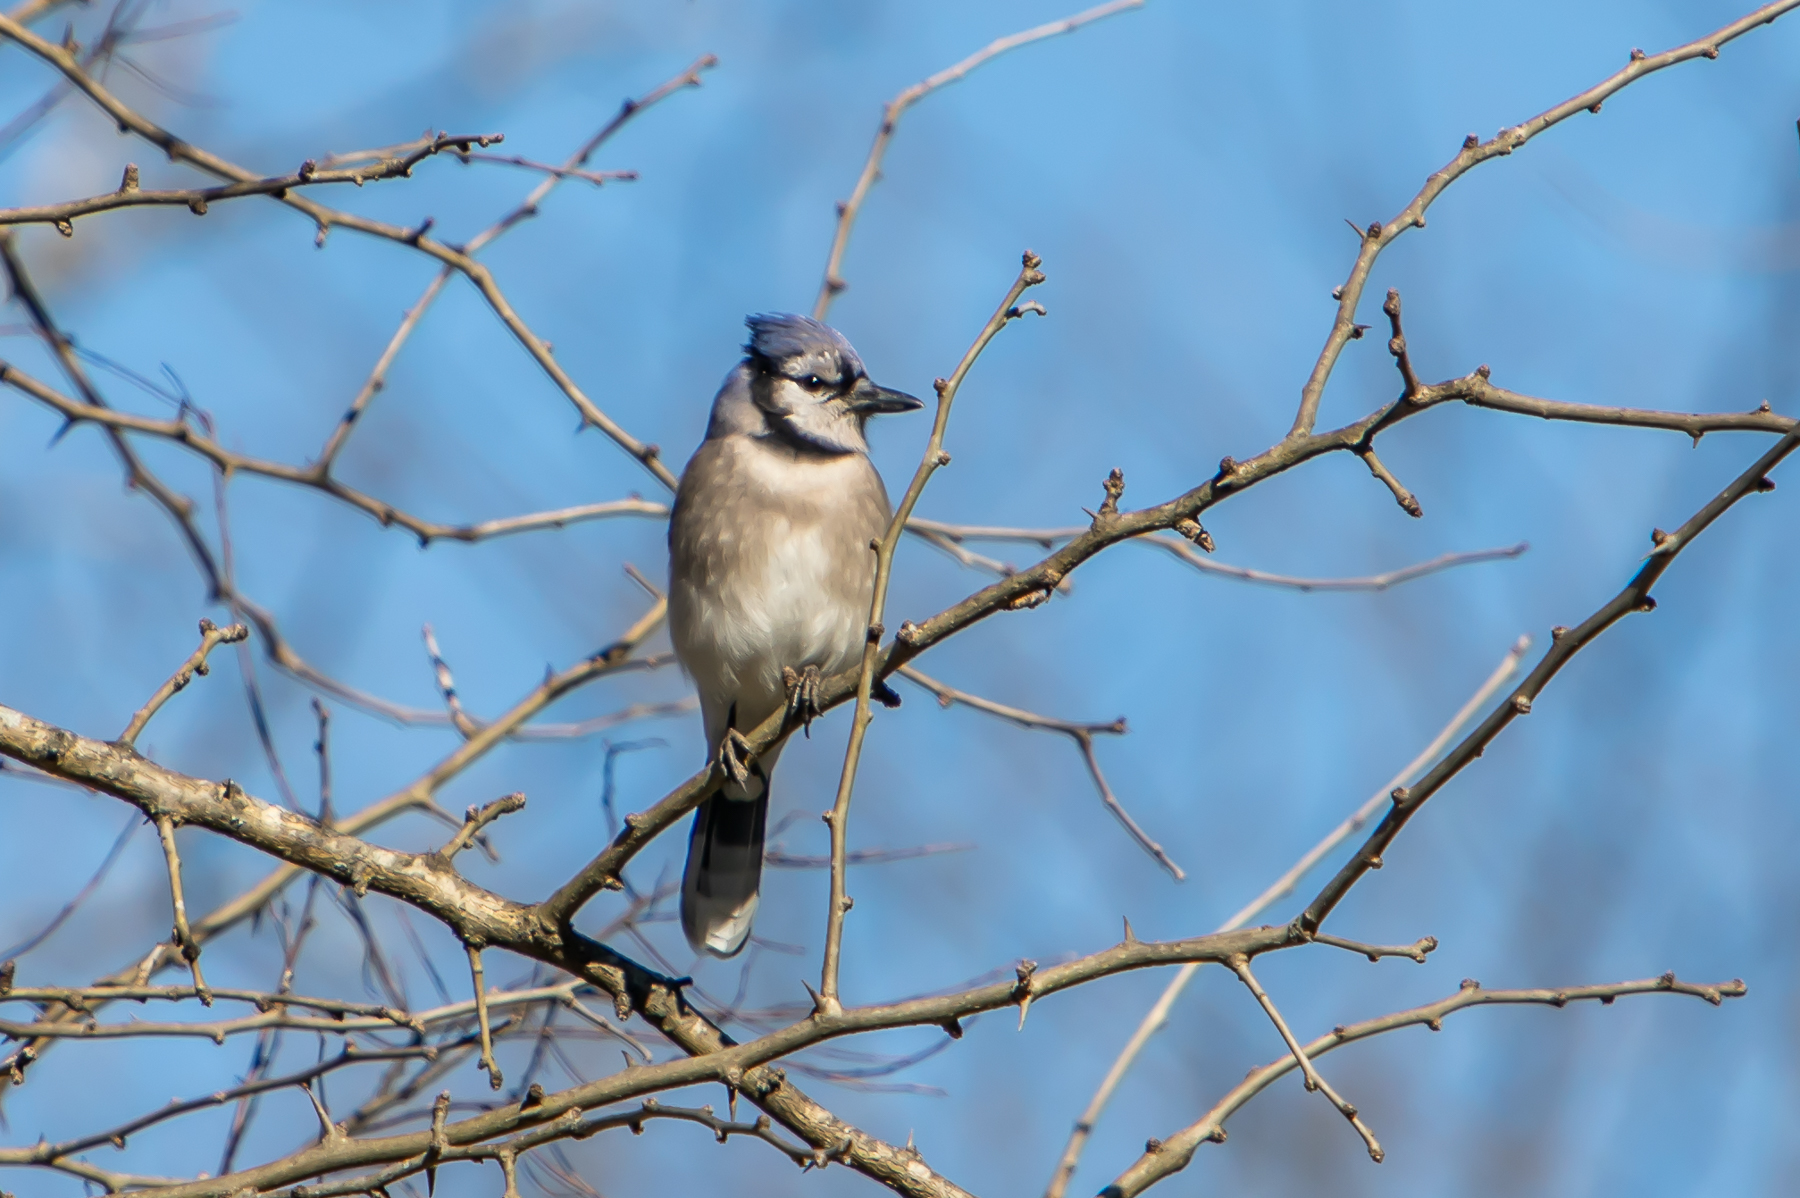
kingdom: Animalia
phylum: Chordata
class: Aves
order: Passeriformes
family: Corvidae
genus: Cyanocitta
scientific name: Cyanocitta cristata
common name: Blue jay
